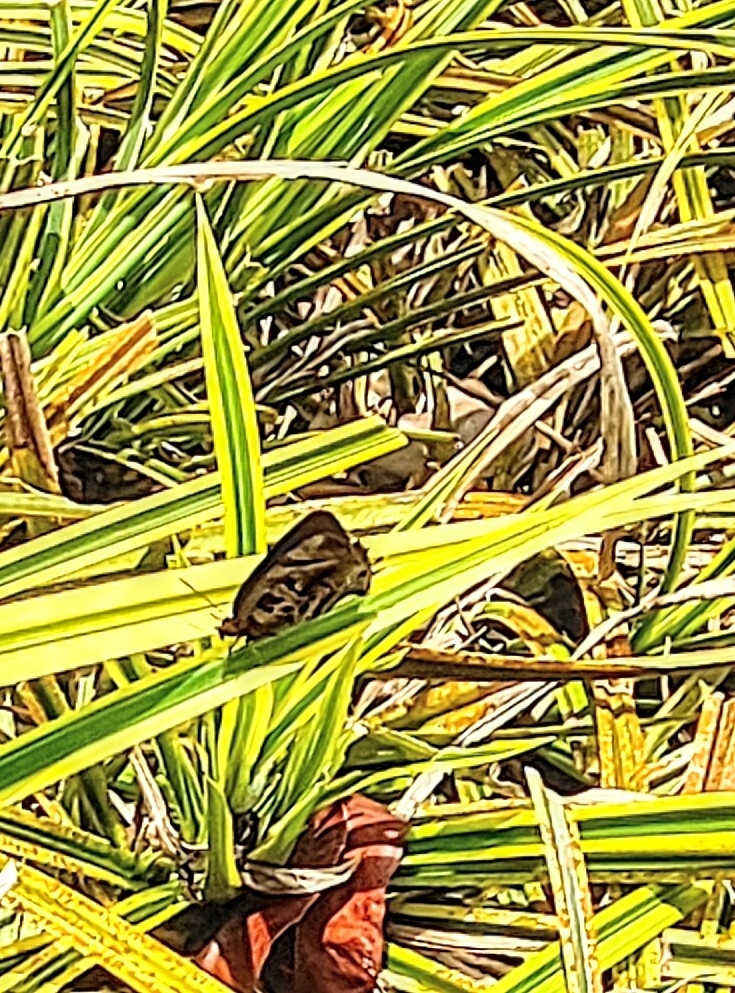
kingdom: Animalia
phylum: Arthropoda
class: Insecta
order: Lepidoptera
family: Lycaenidae
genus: Flos
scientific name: Flos
